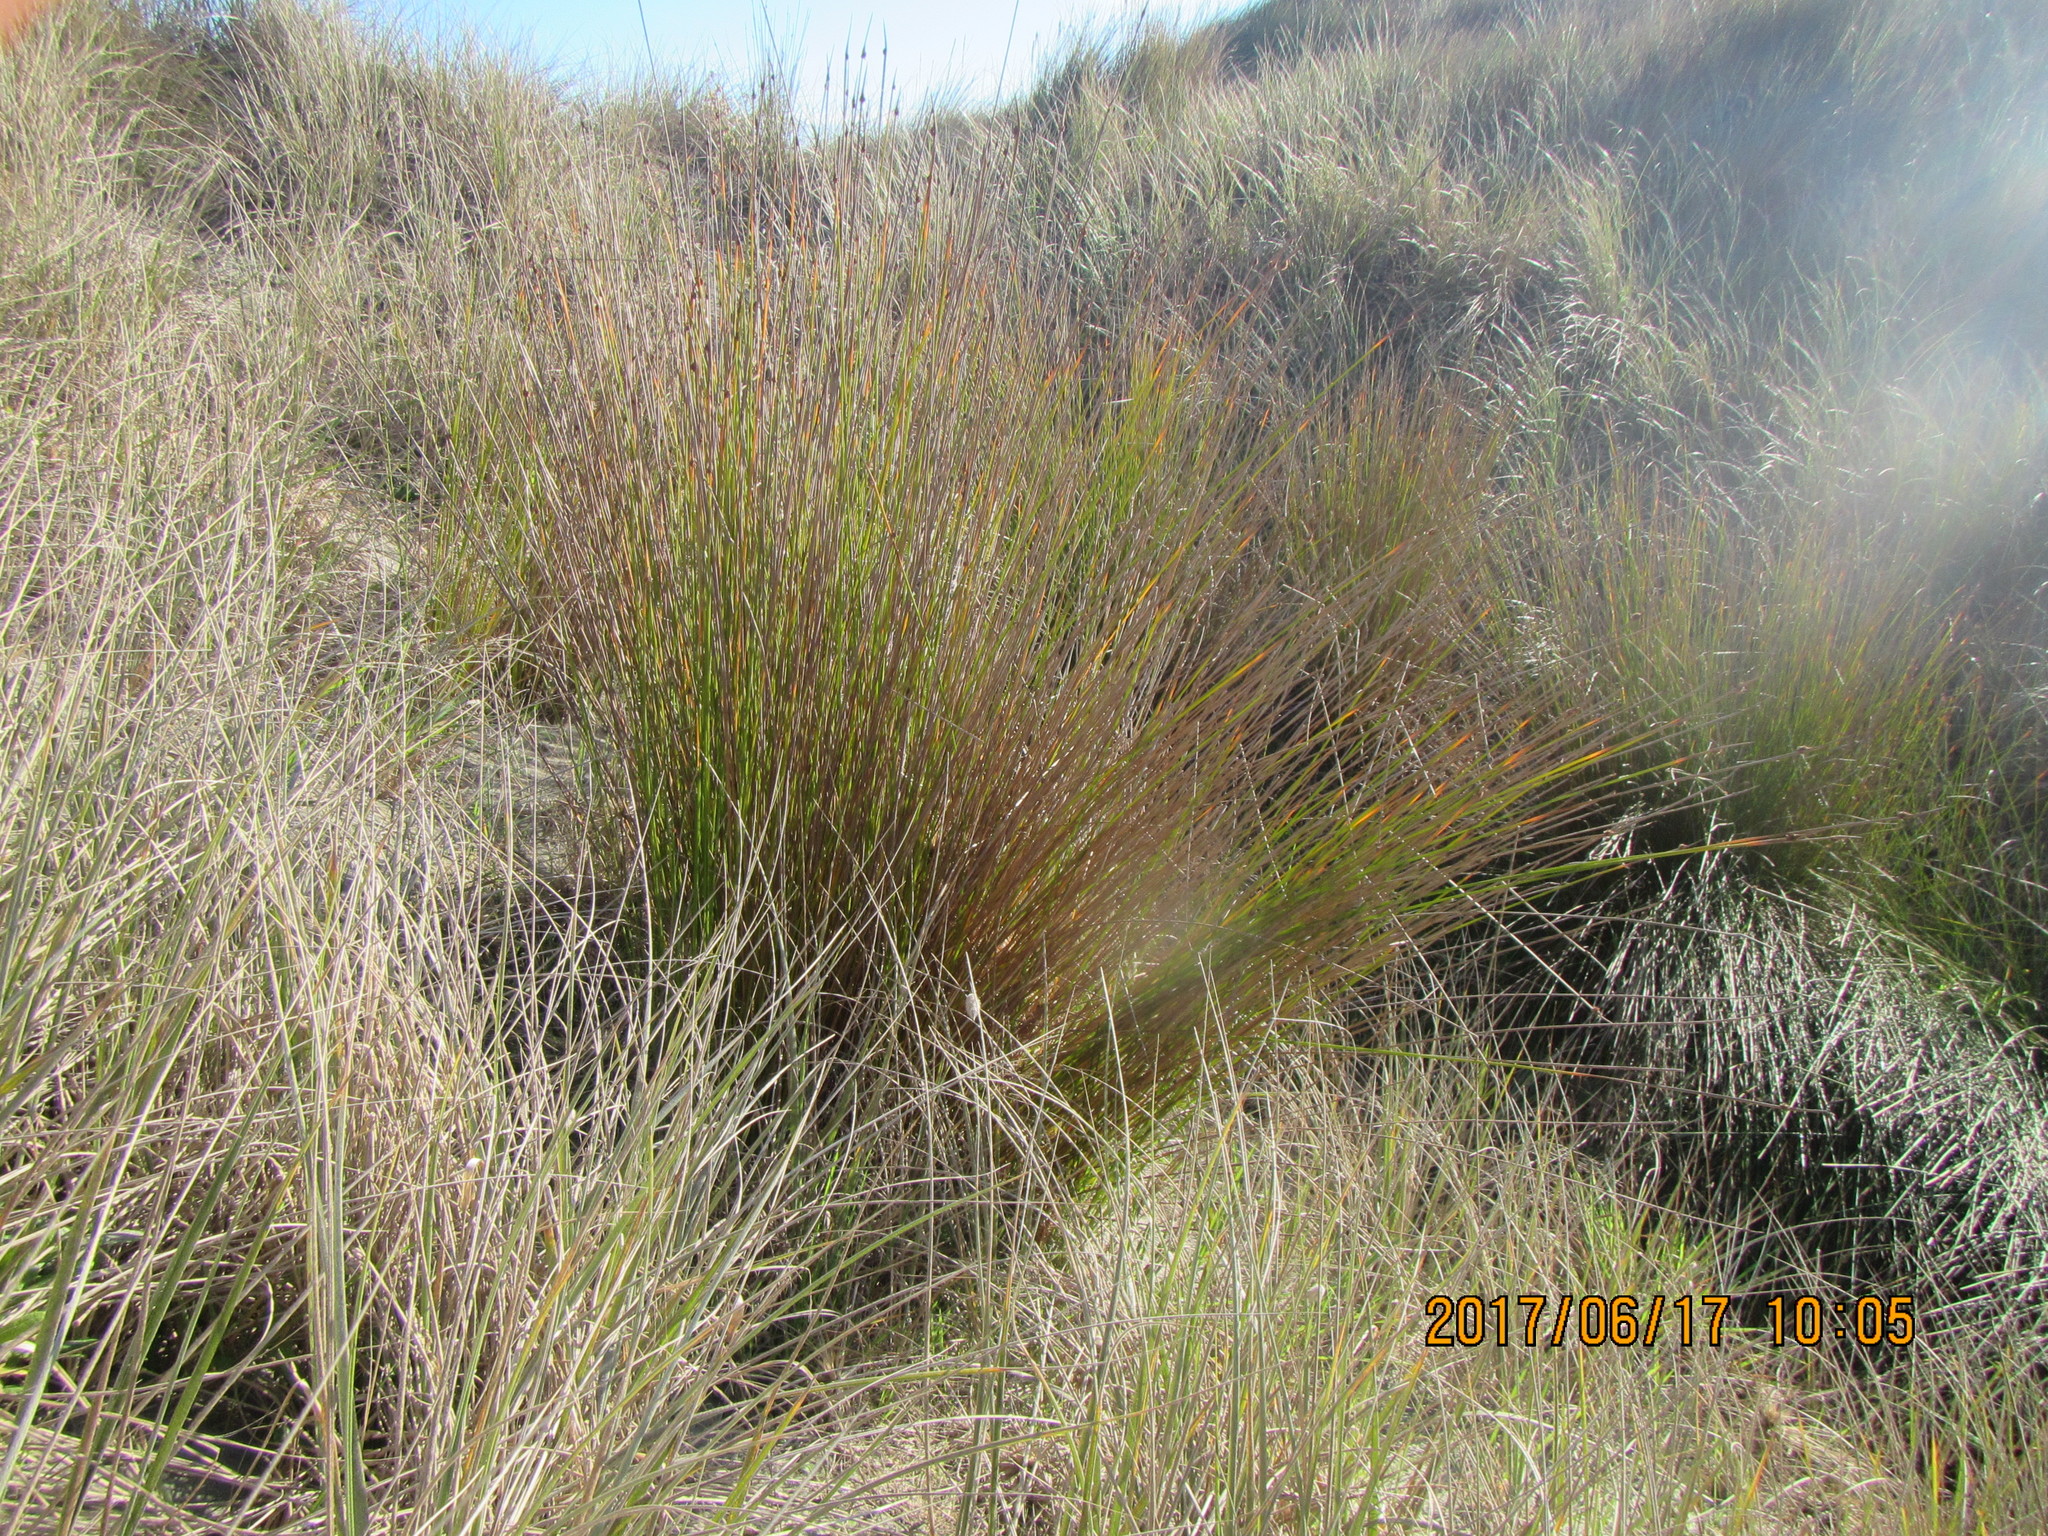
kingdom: Plantae
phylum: Tracheophyta
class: Liliopsida
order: Poales
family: Cyperaceae
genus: Ficinia
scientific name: Ficinia nodosa
